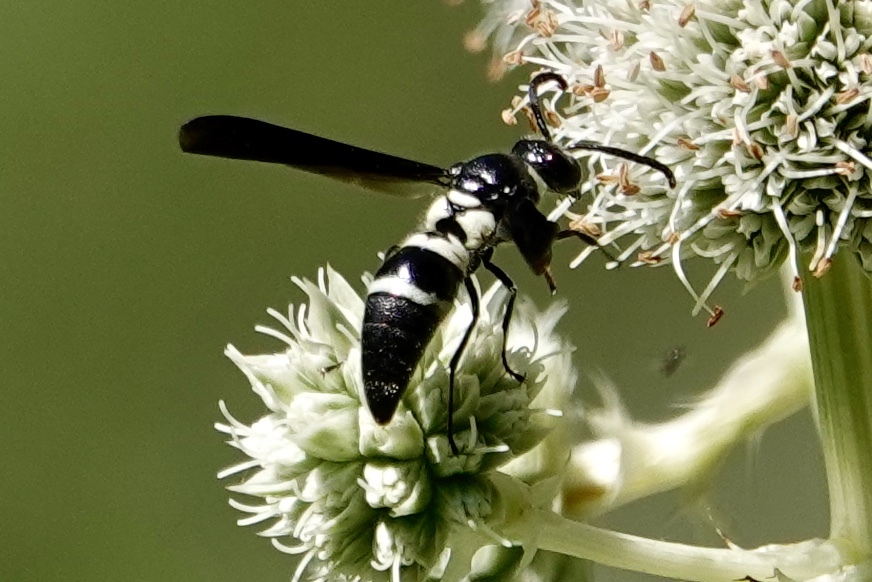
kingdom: Animalia
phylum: Arthropoda
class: Insecta
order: Hymenoptera
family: Eumenidae
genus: Pseudodynerus
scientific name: Pseudodynerus quadrisectus
